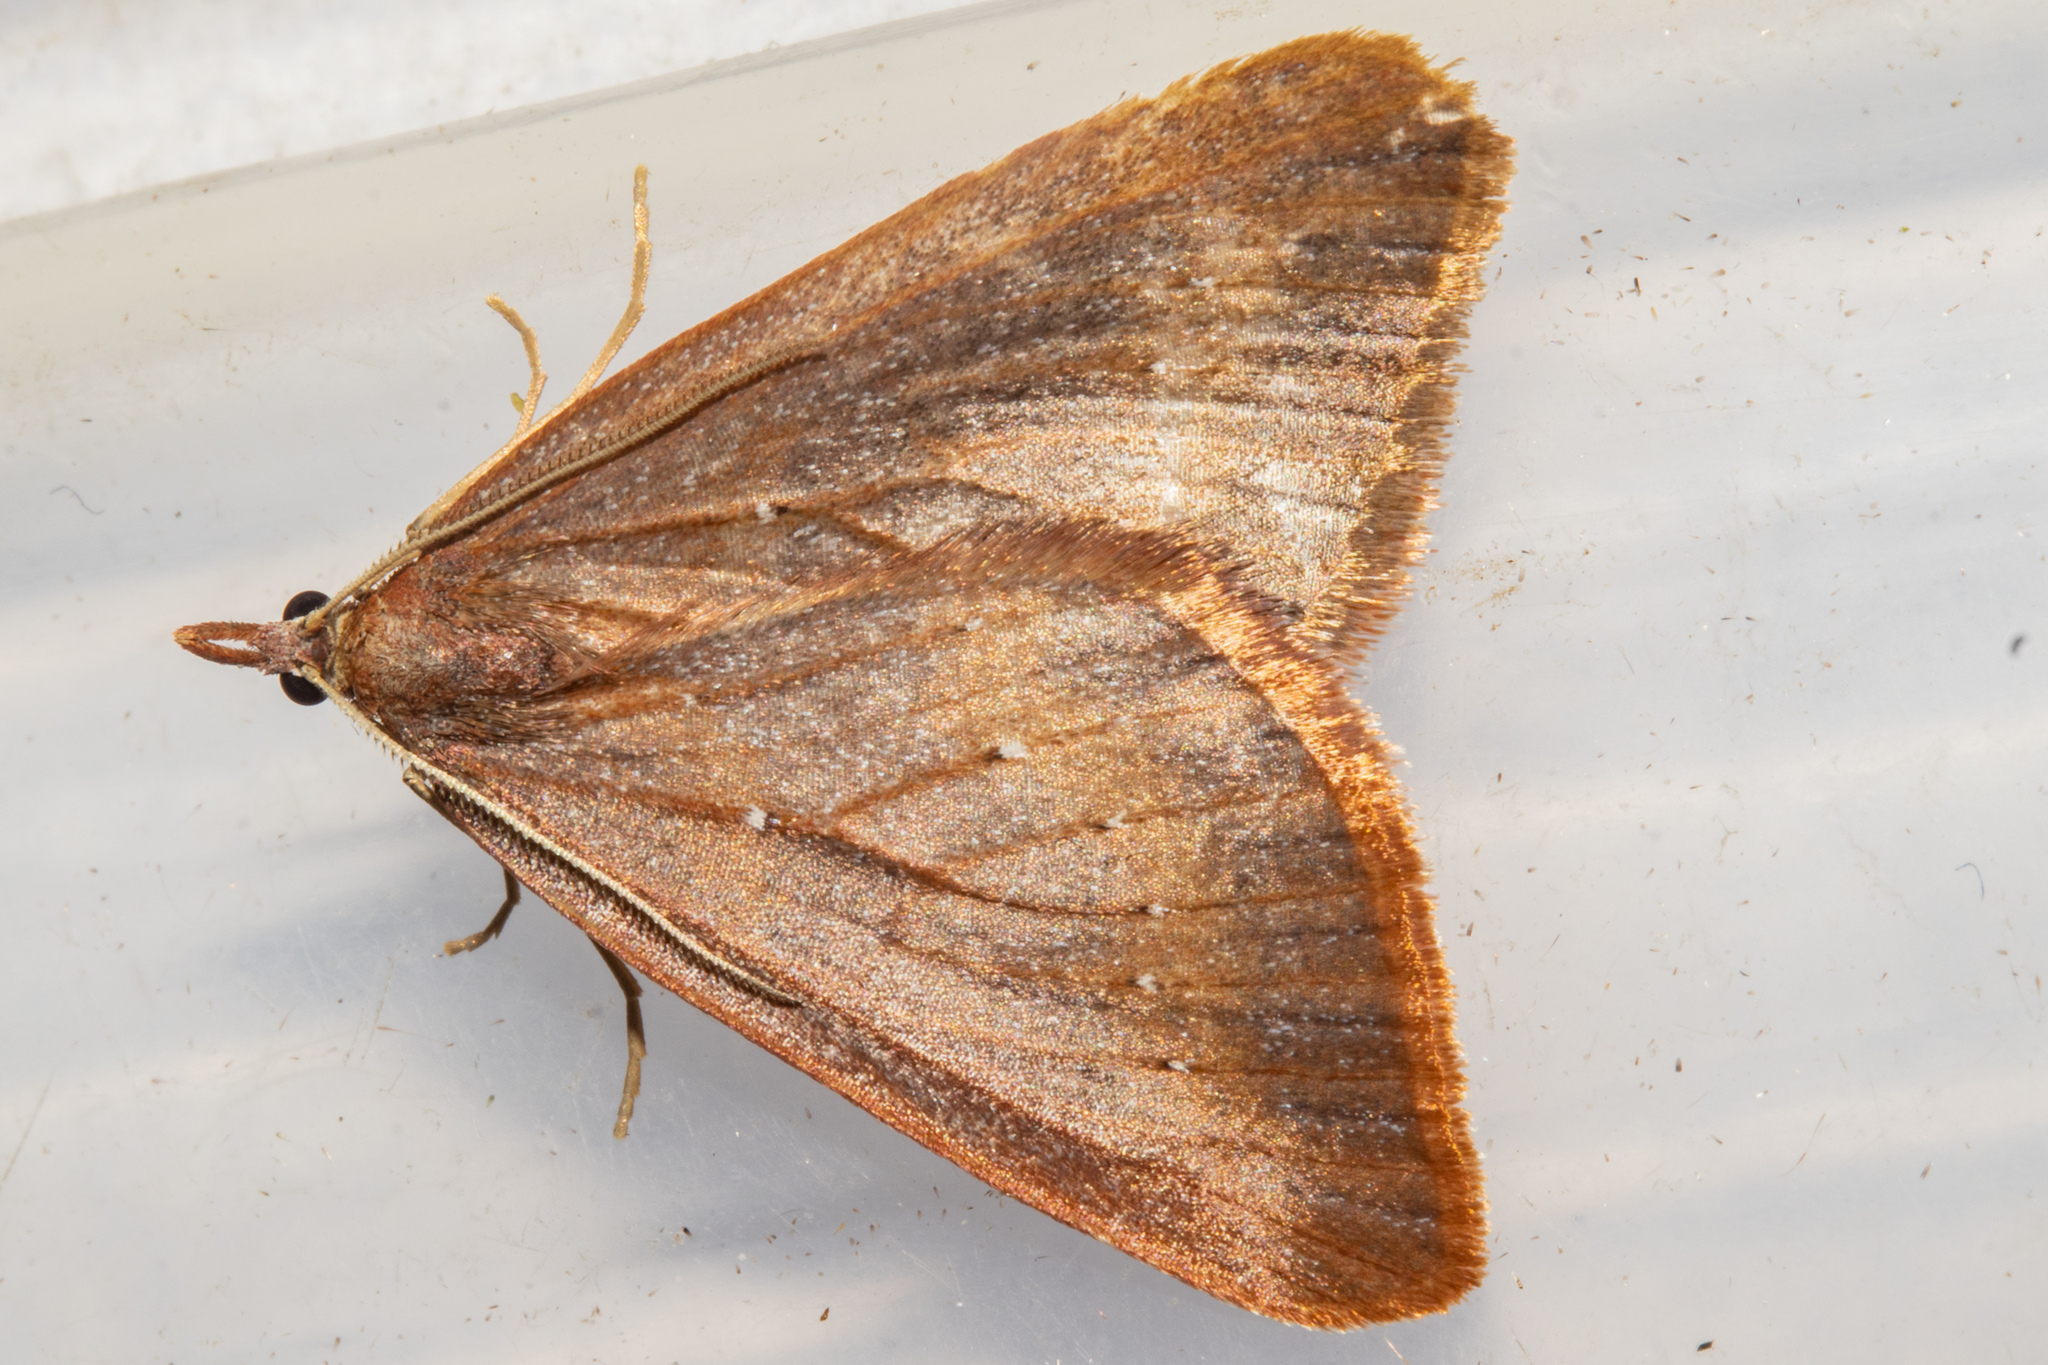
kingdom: Animalia
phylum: Arthropoda
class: Insecta
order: Lepidoptera
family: Geometridae
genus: Xanthorhoe
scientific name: Xanthorhoe occulta
